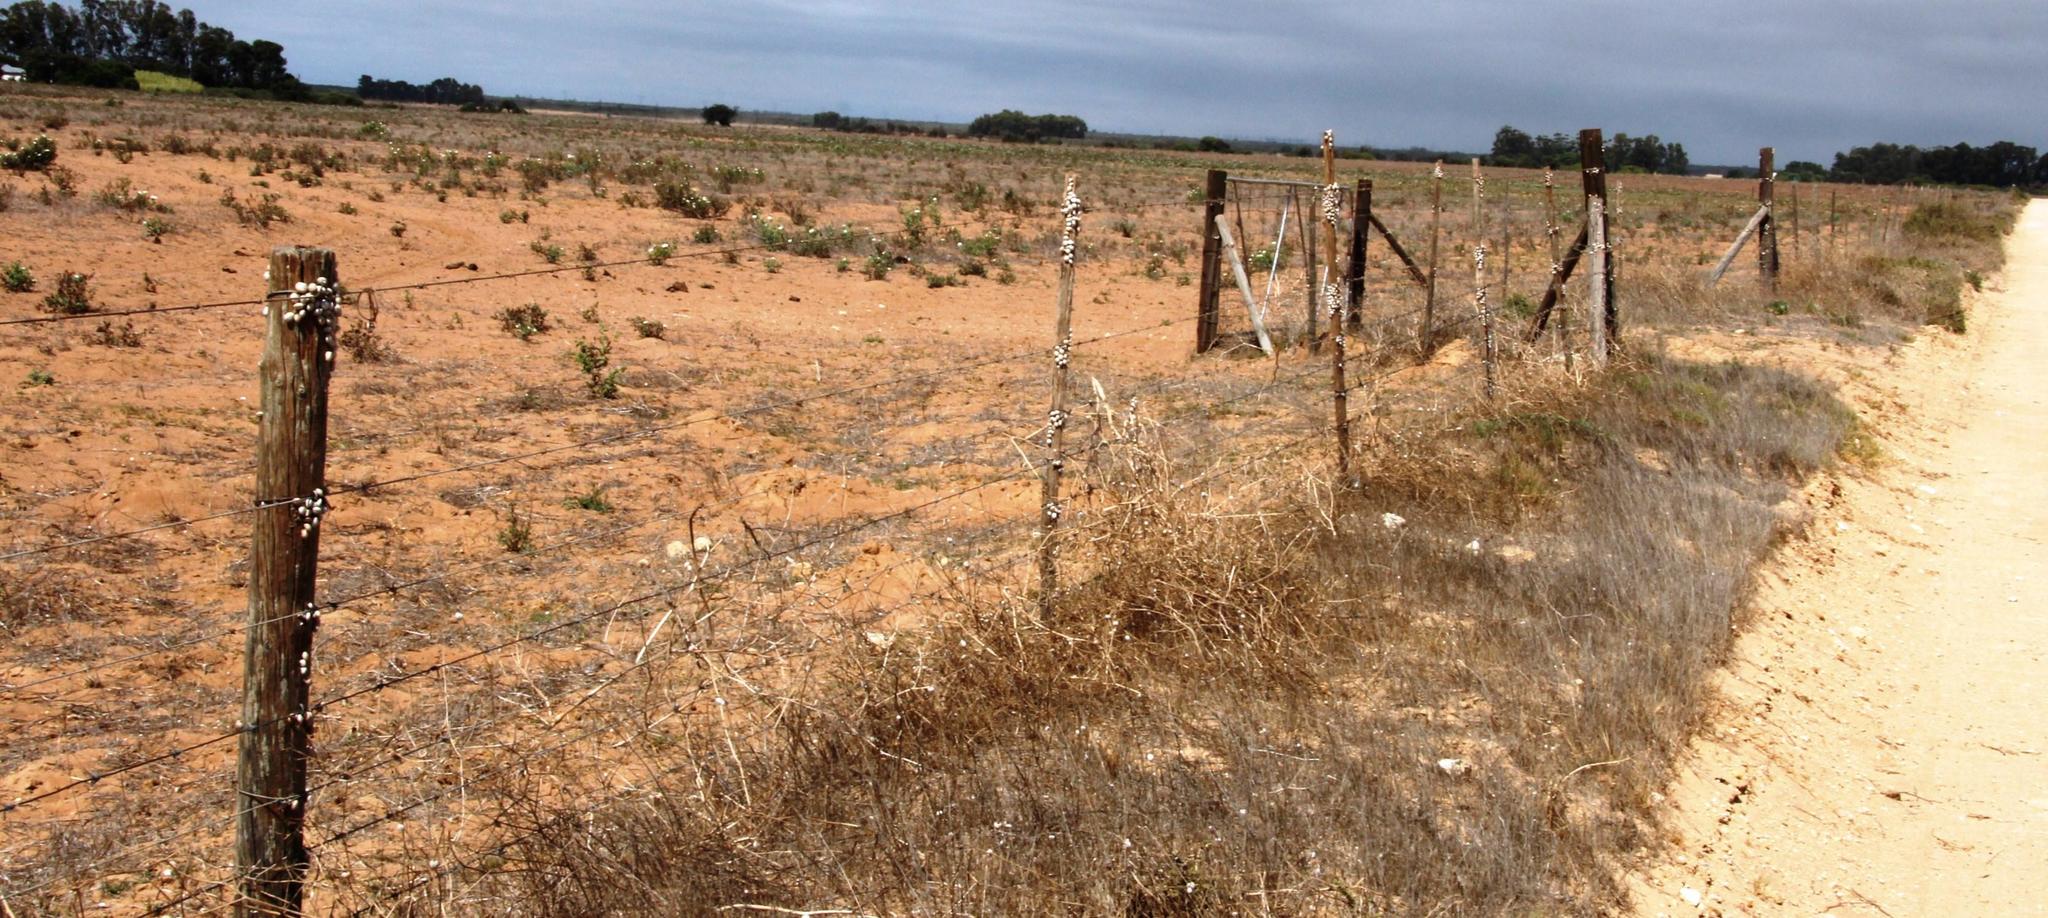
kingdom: Animalia
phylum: Mollusca
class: Gastropoda
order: Stylommatophora
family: Helicidae
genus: Theba
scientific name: Theba pisana
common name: White snail
